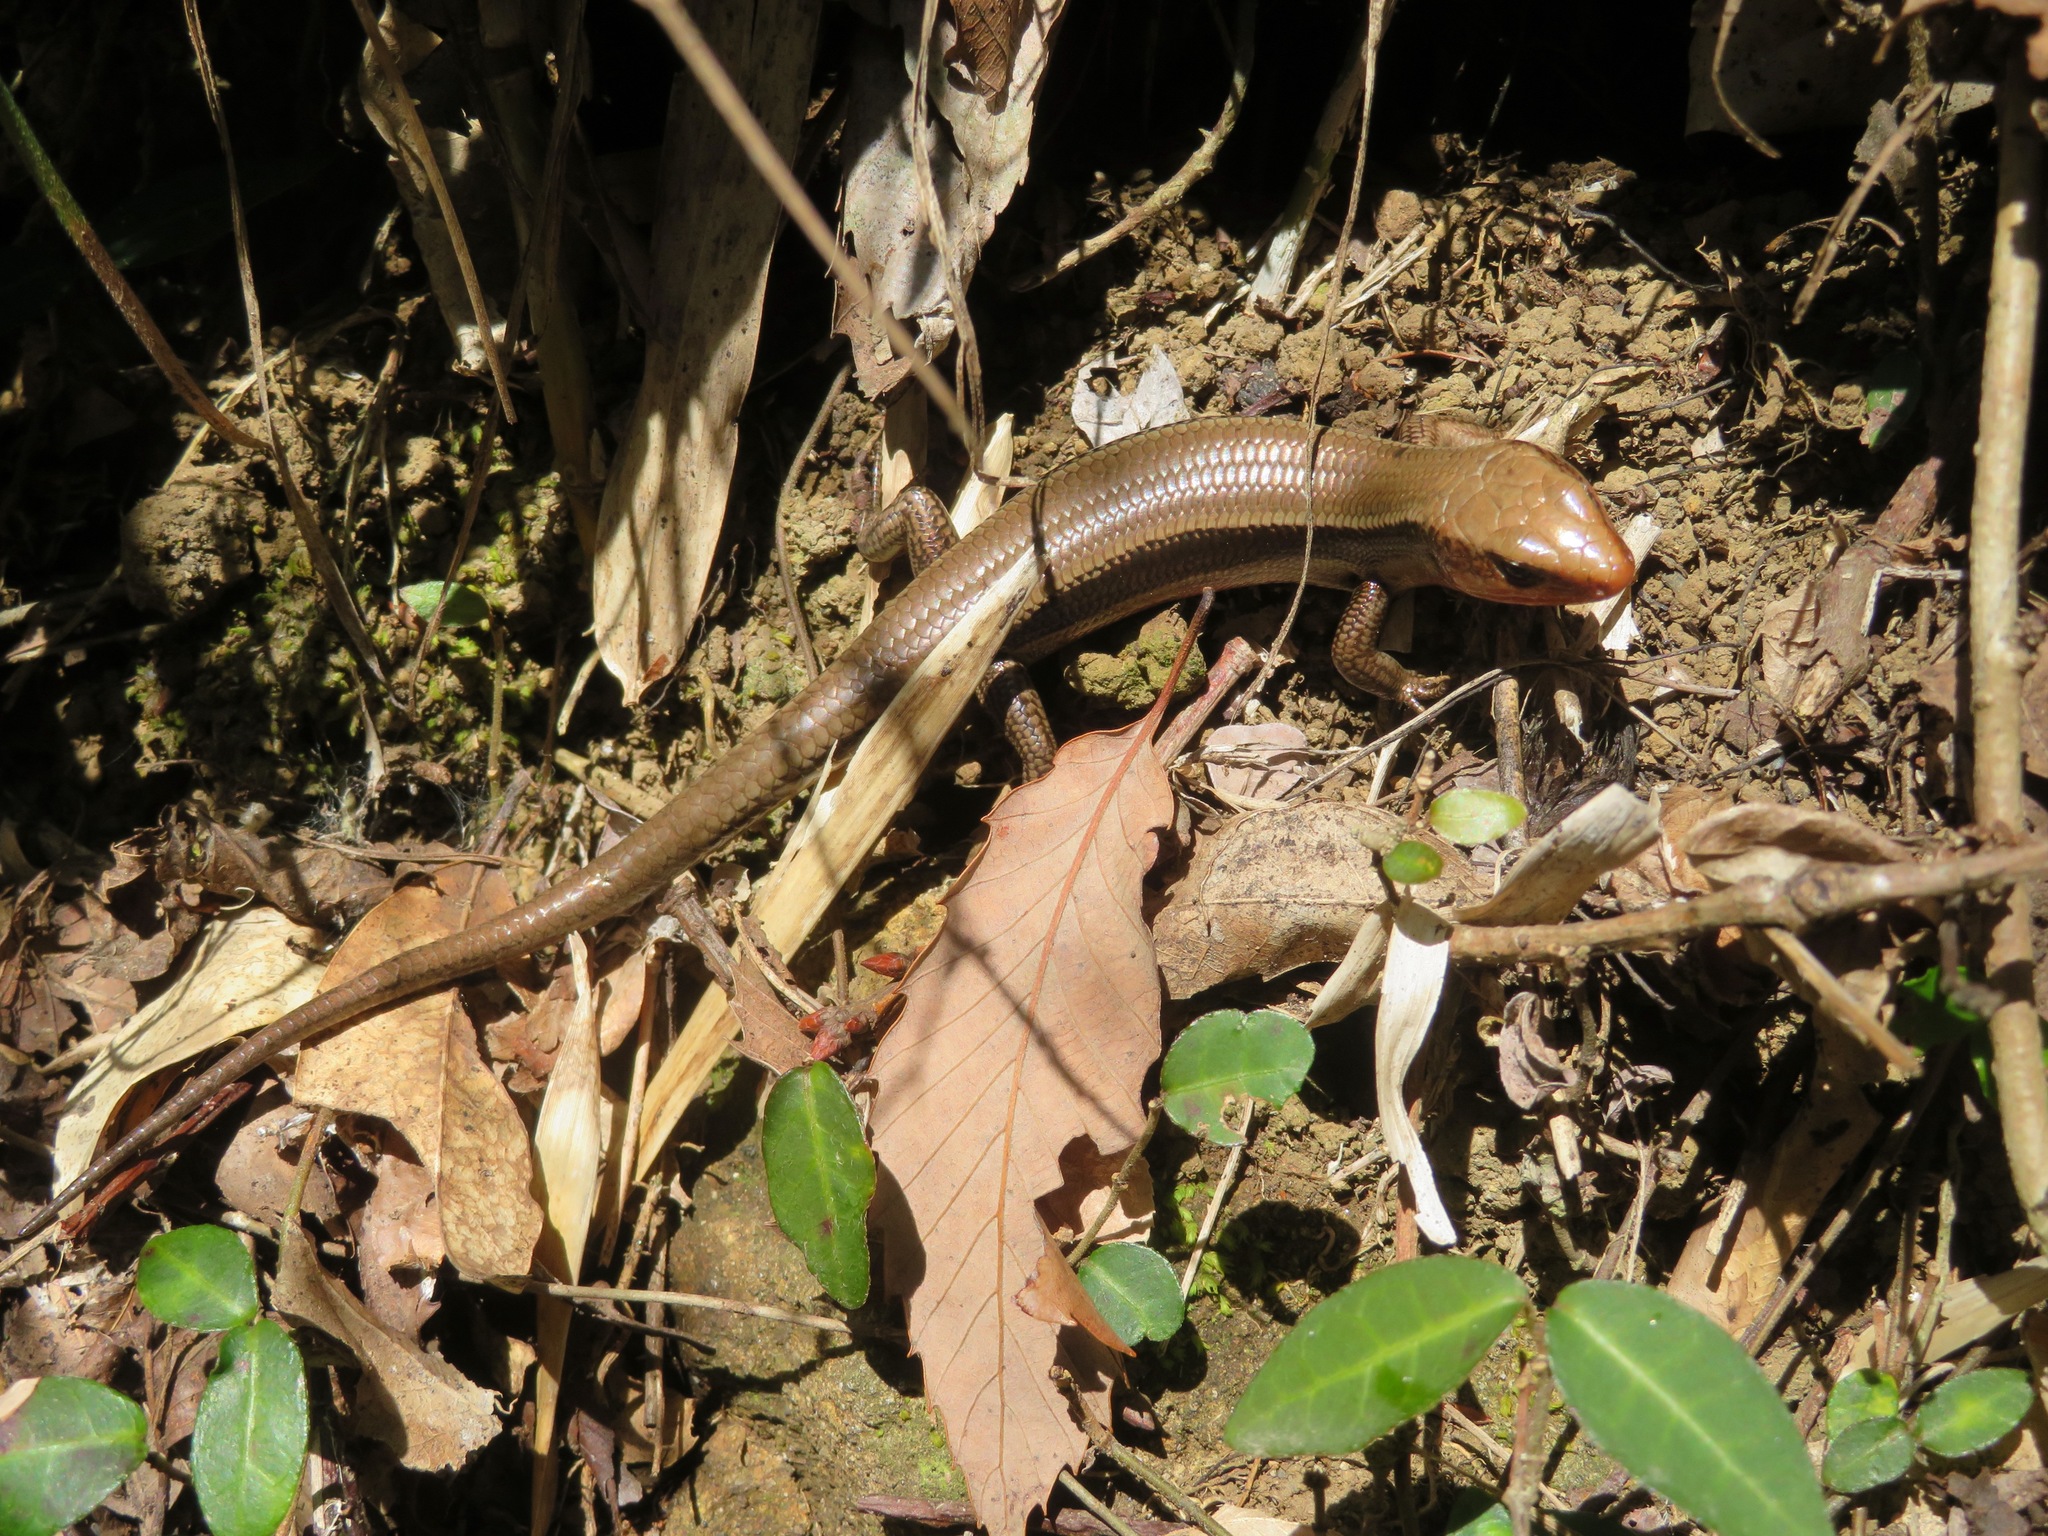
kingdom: Animalia
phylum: Chordata
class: Squamata
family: Scincidae
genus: Plestiodon
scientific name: Plestiodon finitimus
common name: Far eastern skink
